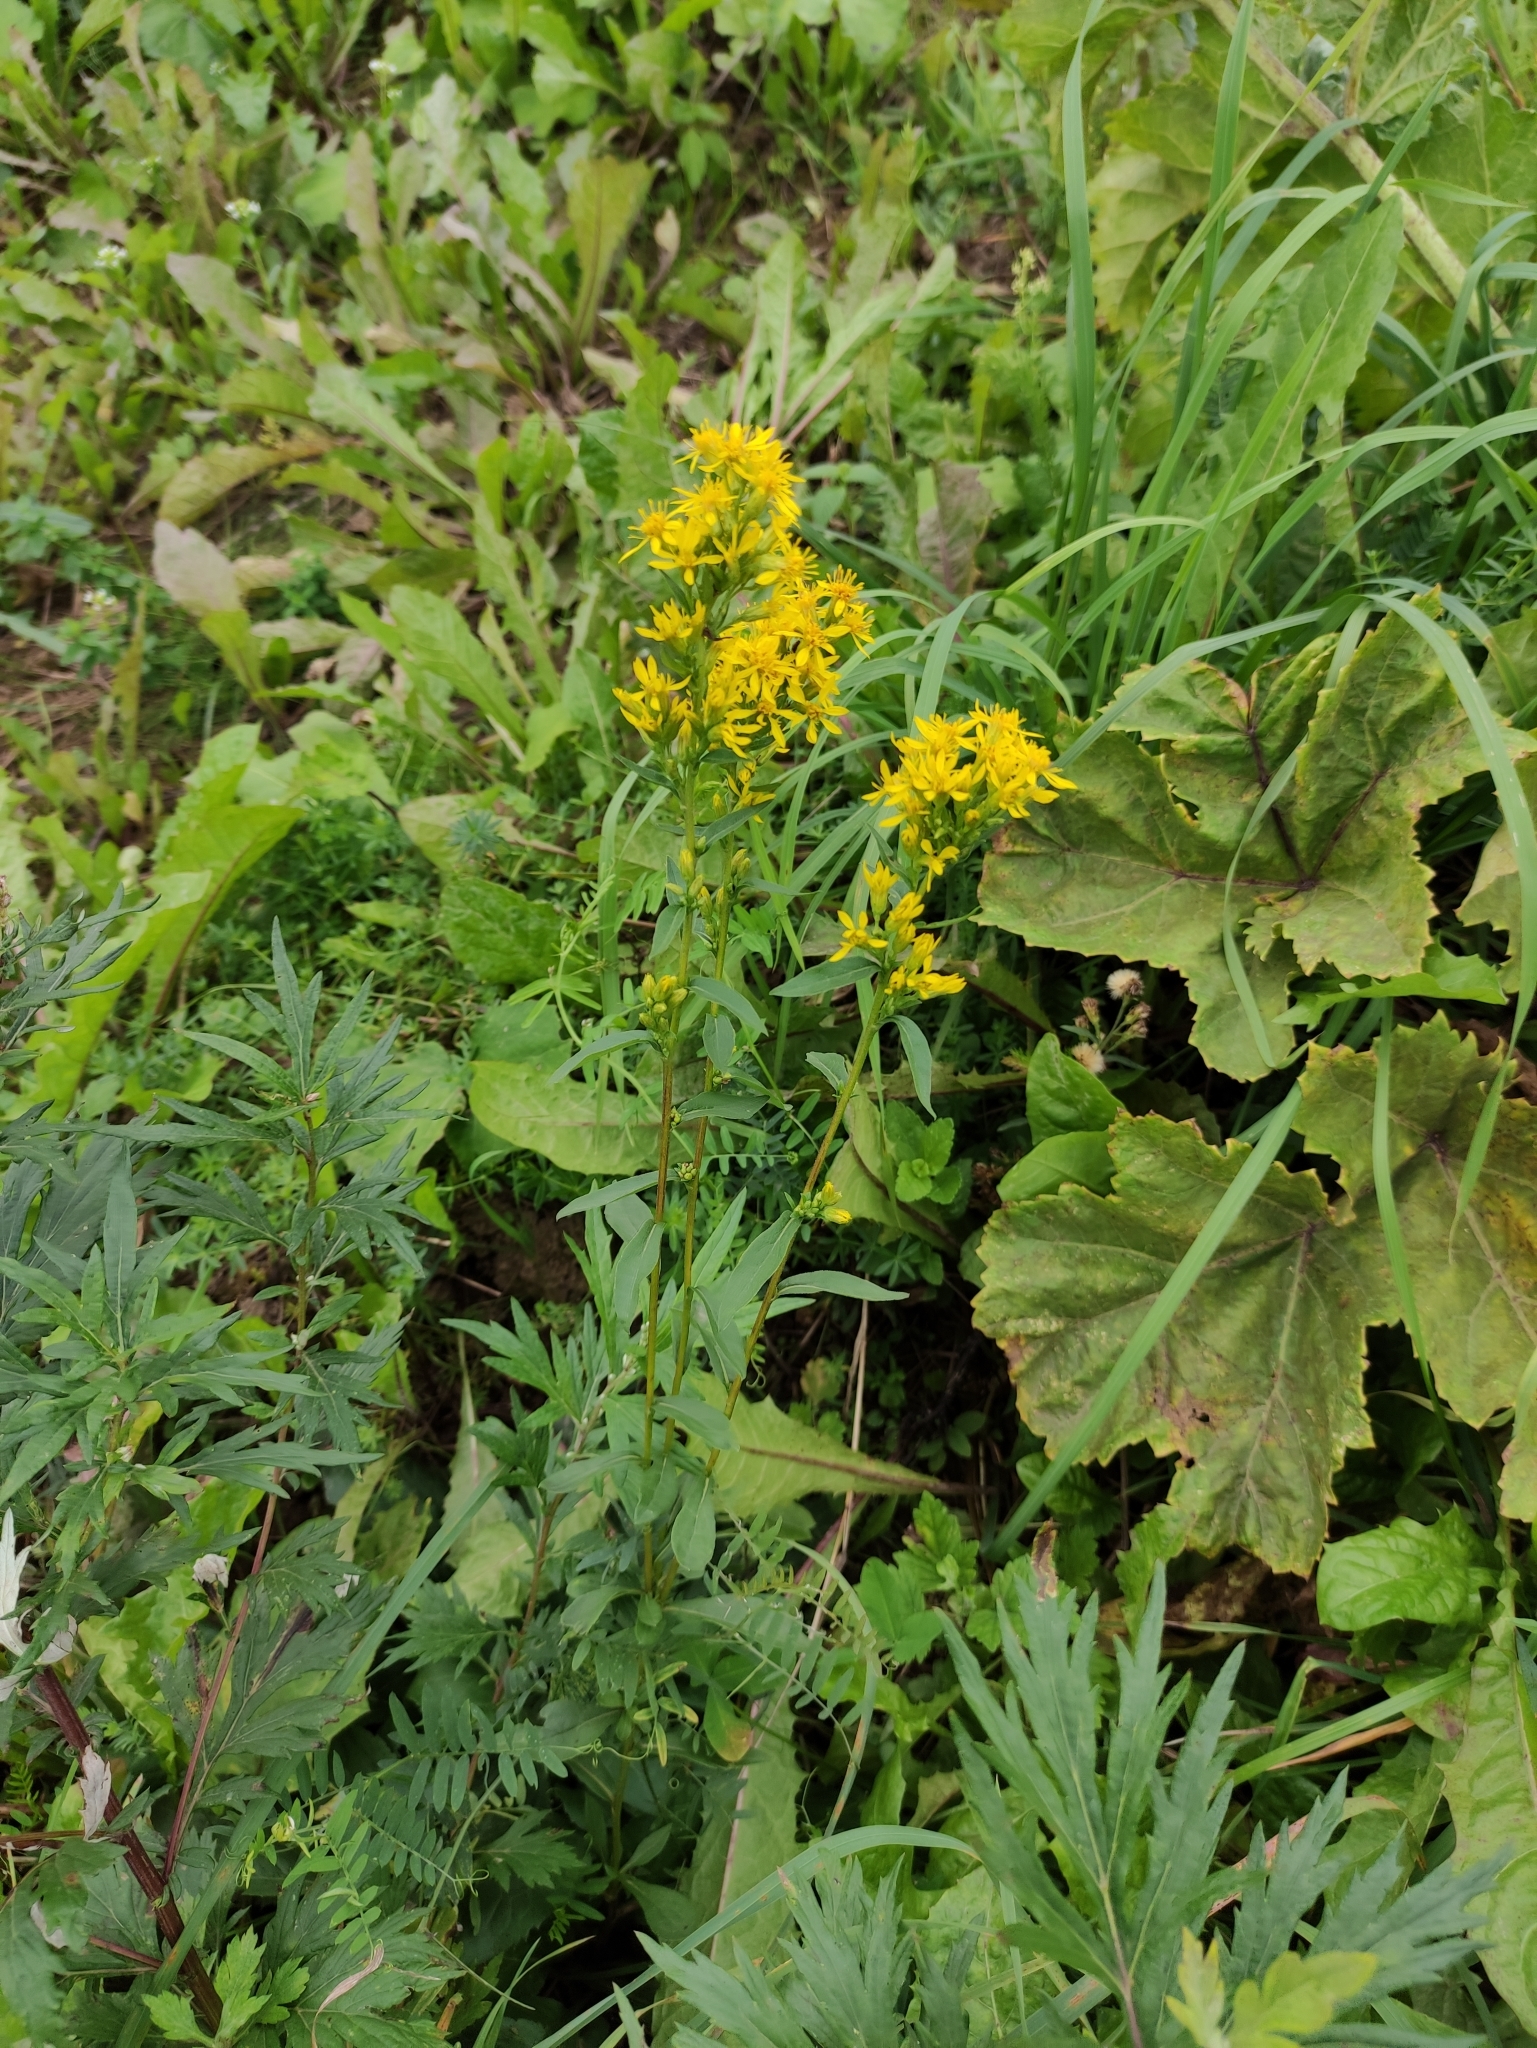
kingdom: Plantae
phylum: Tracheophyta
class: Magnoliopsida
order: Asterales
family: Asteraceae
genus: Solidago
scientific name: Solidago virgaurea
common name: Goldenrod
